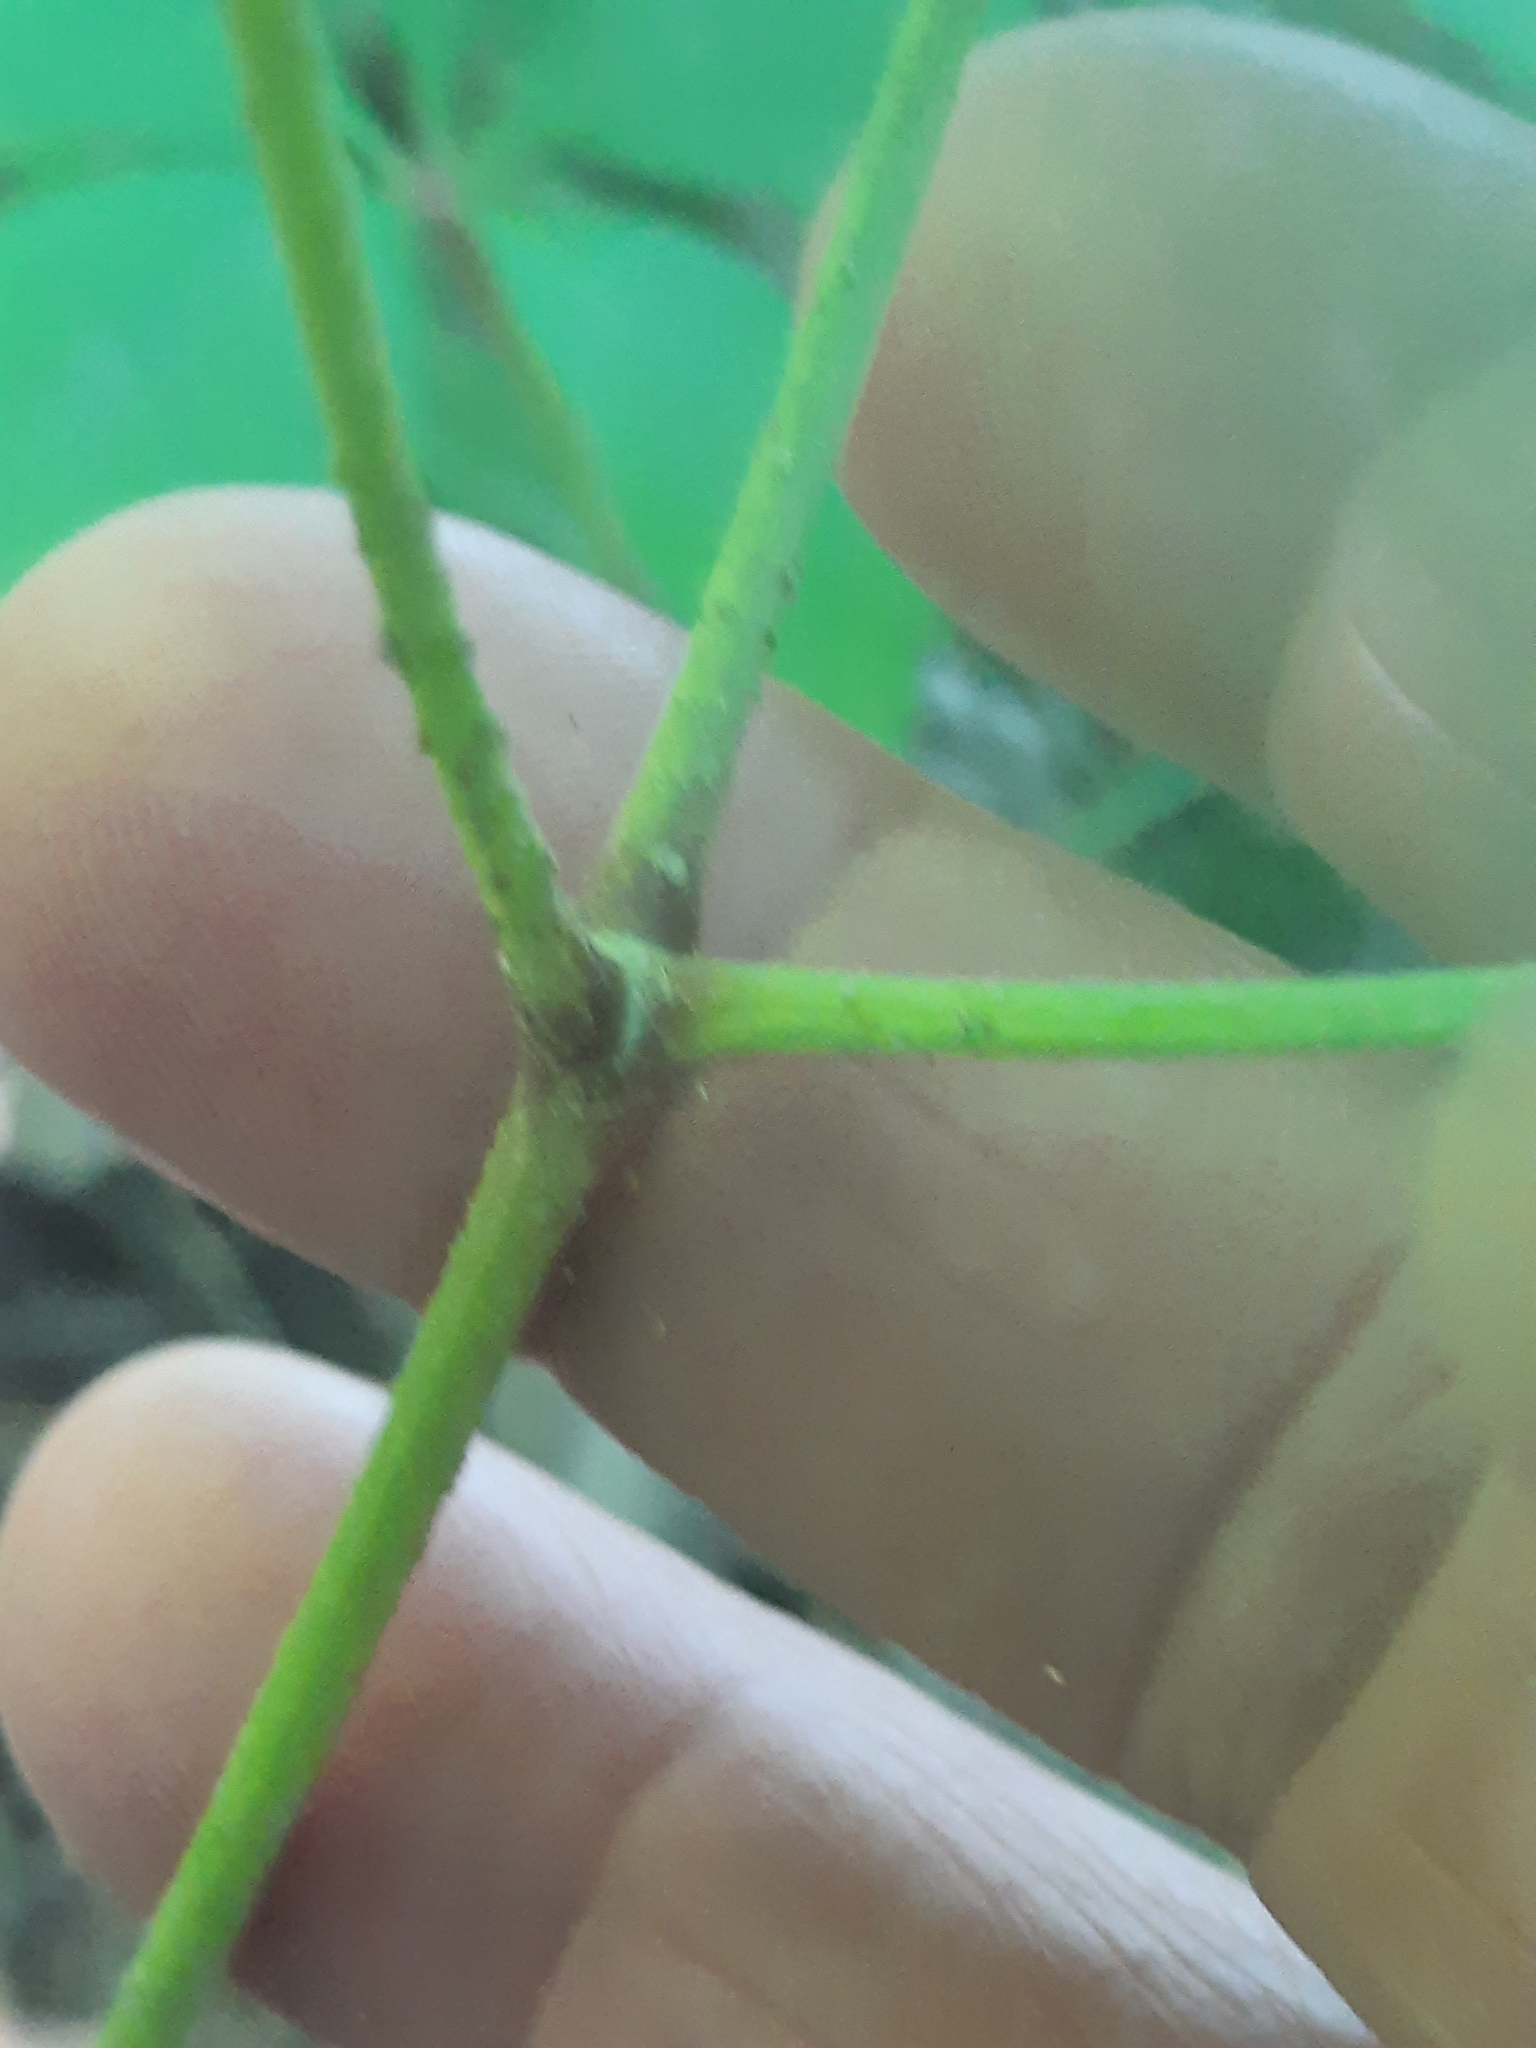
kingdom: Plantae
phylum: Tracheophyta
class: Magnoliopsida
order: Apiales
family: Araliaceae
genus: Aralia
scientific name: Aralia nudicaulis
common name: Wild sarsaparilla
